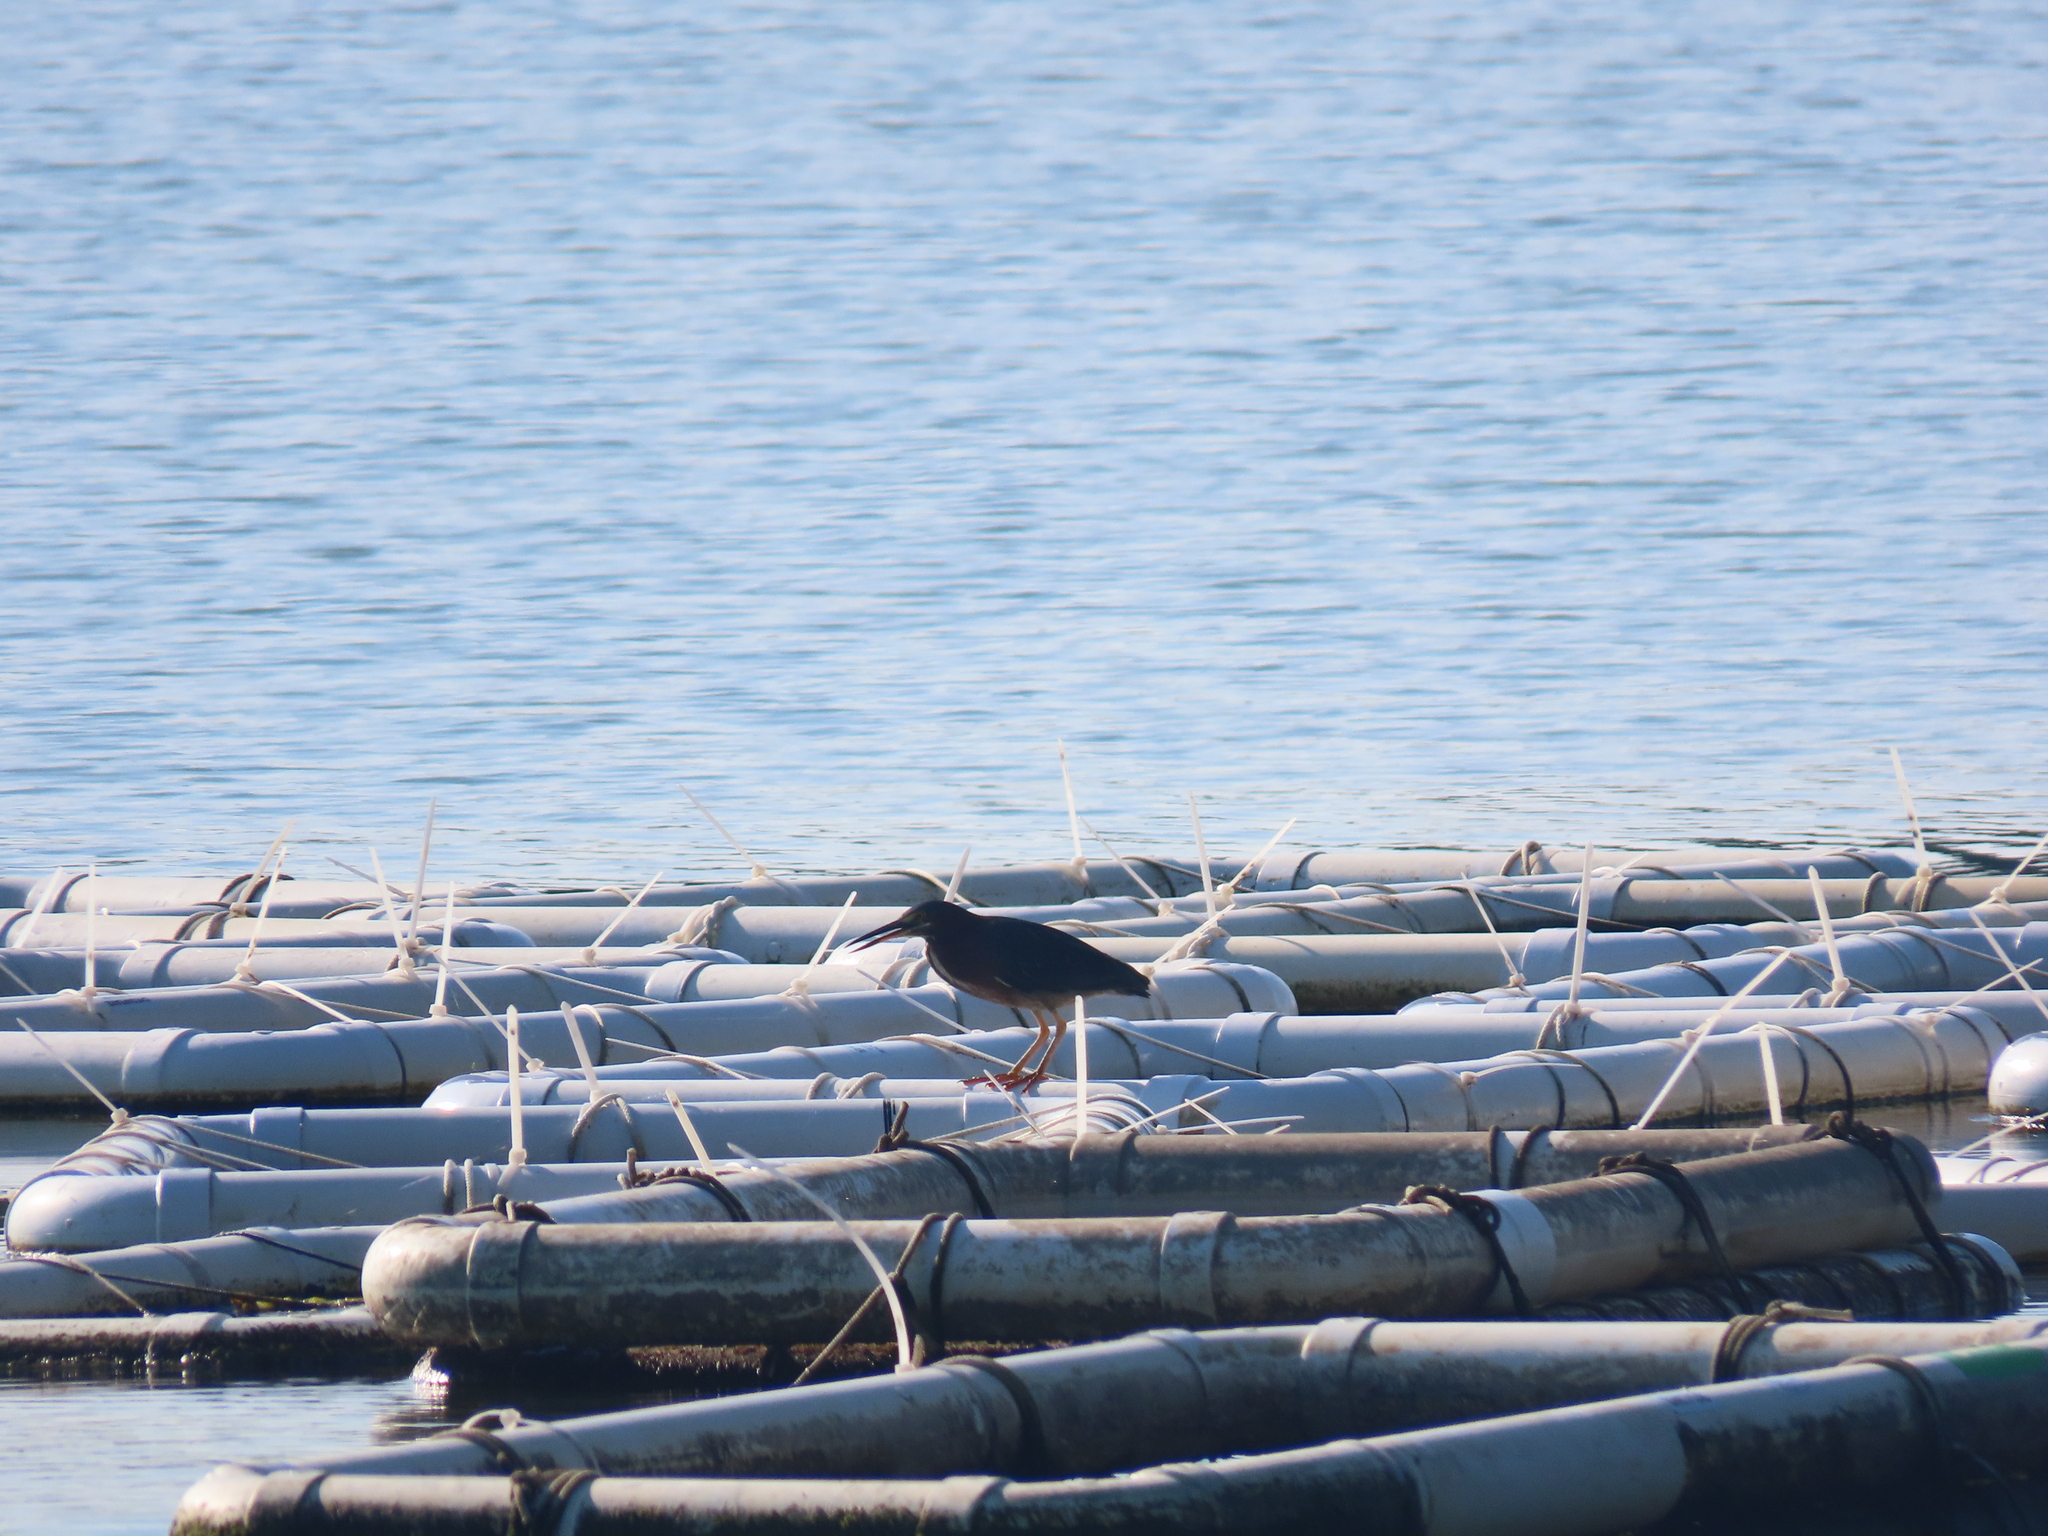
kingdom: Animalia
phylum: Chordata
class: Aves
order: Pelecaniformes
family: Ardeidae
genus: Butorides
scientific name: Butorides virescens
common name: Green heron
